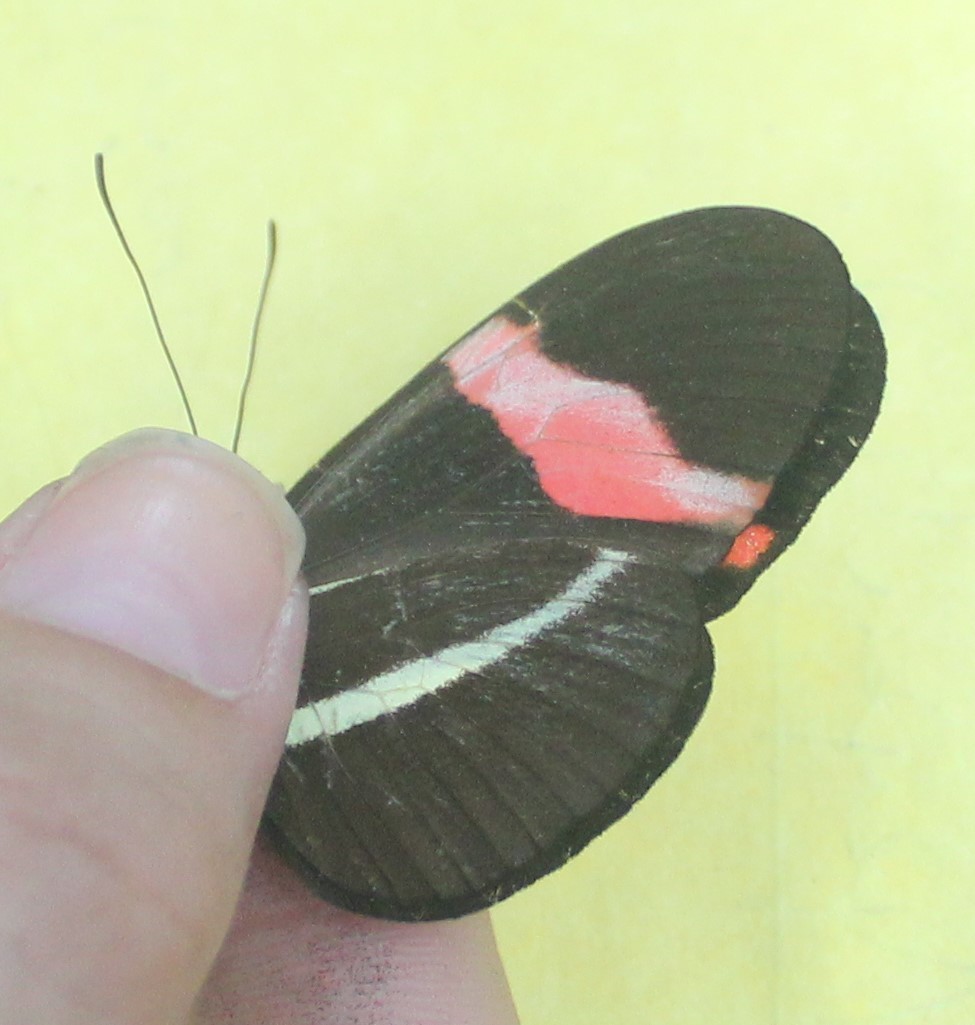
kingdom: Animalia
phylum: Arthropoda
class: Insecta
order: Lepidoptera
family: Nymphalidae
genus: Tirumala
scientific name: Tirumala petiverana
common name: Blue monarch
